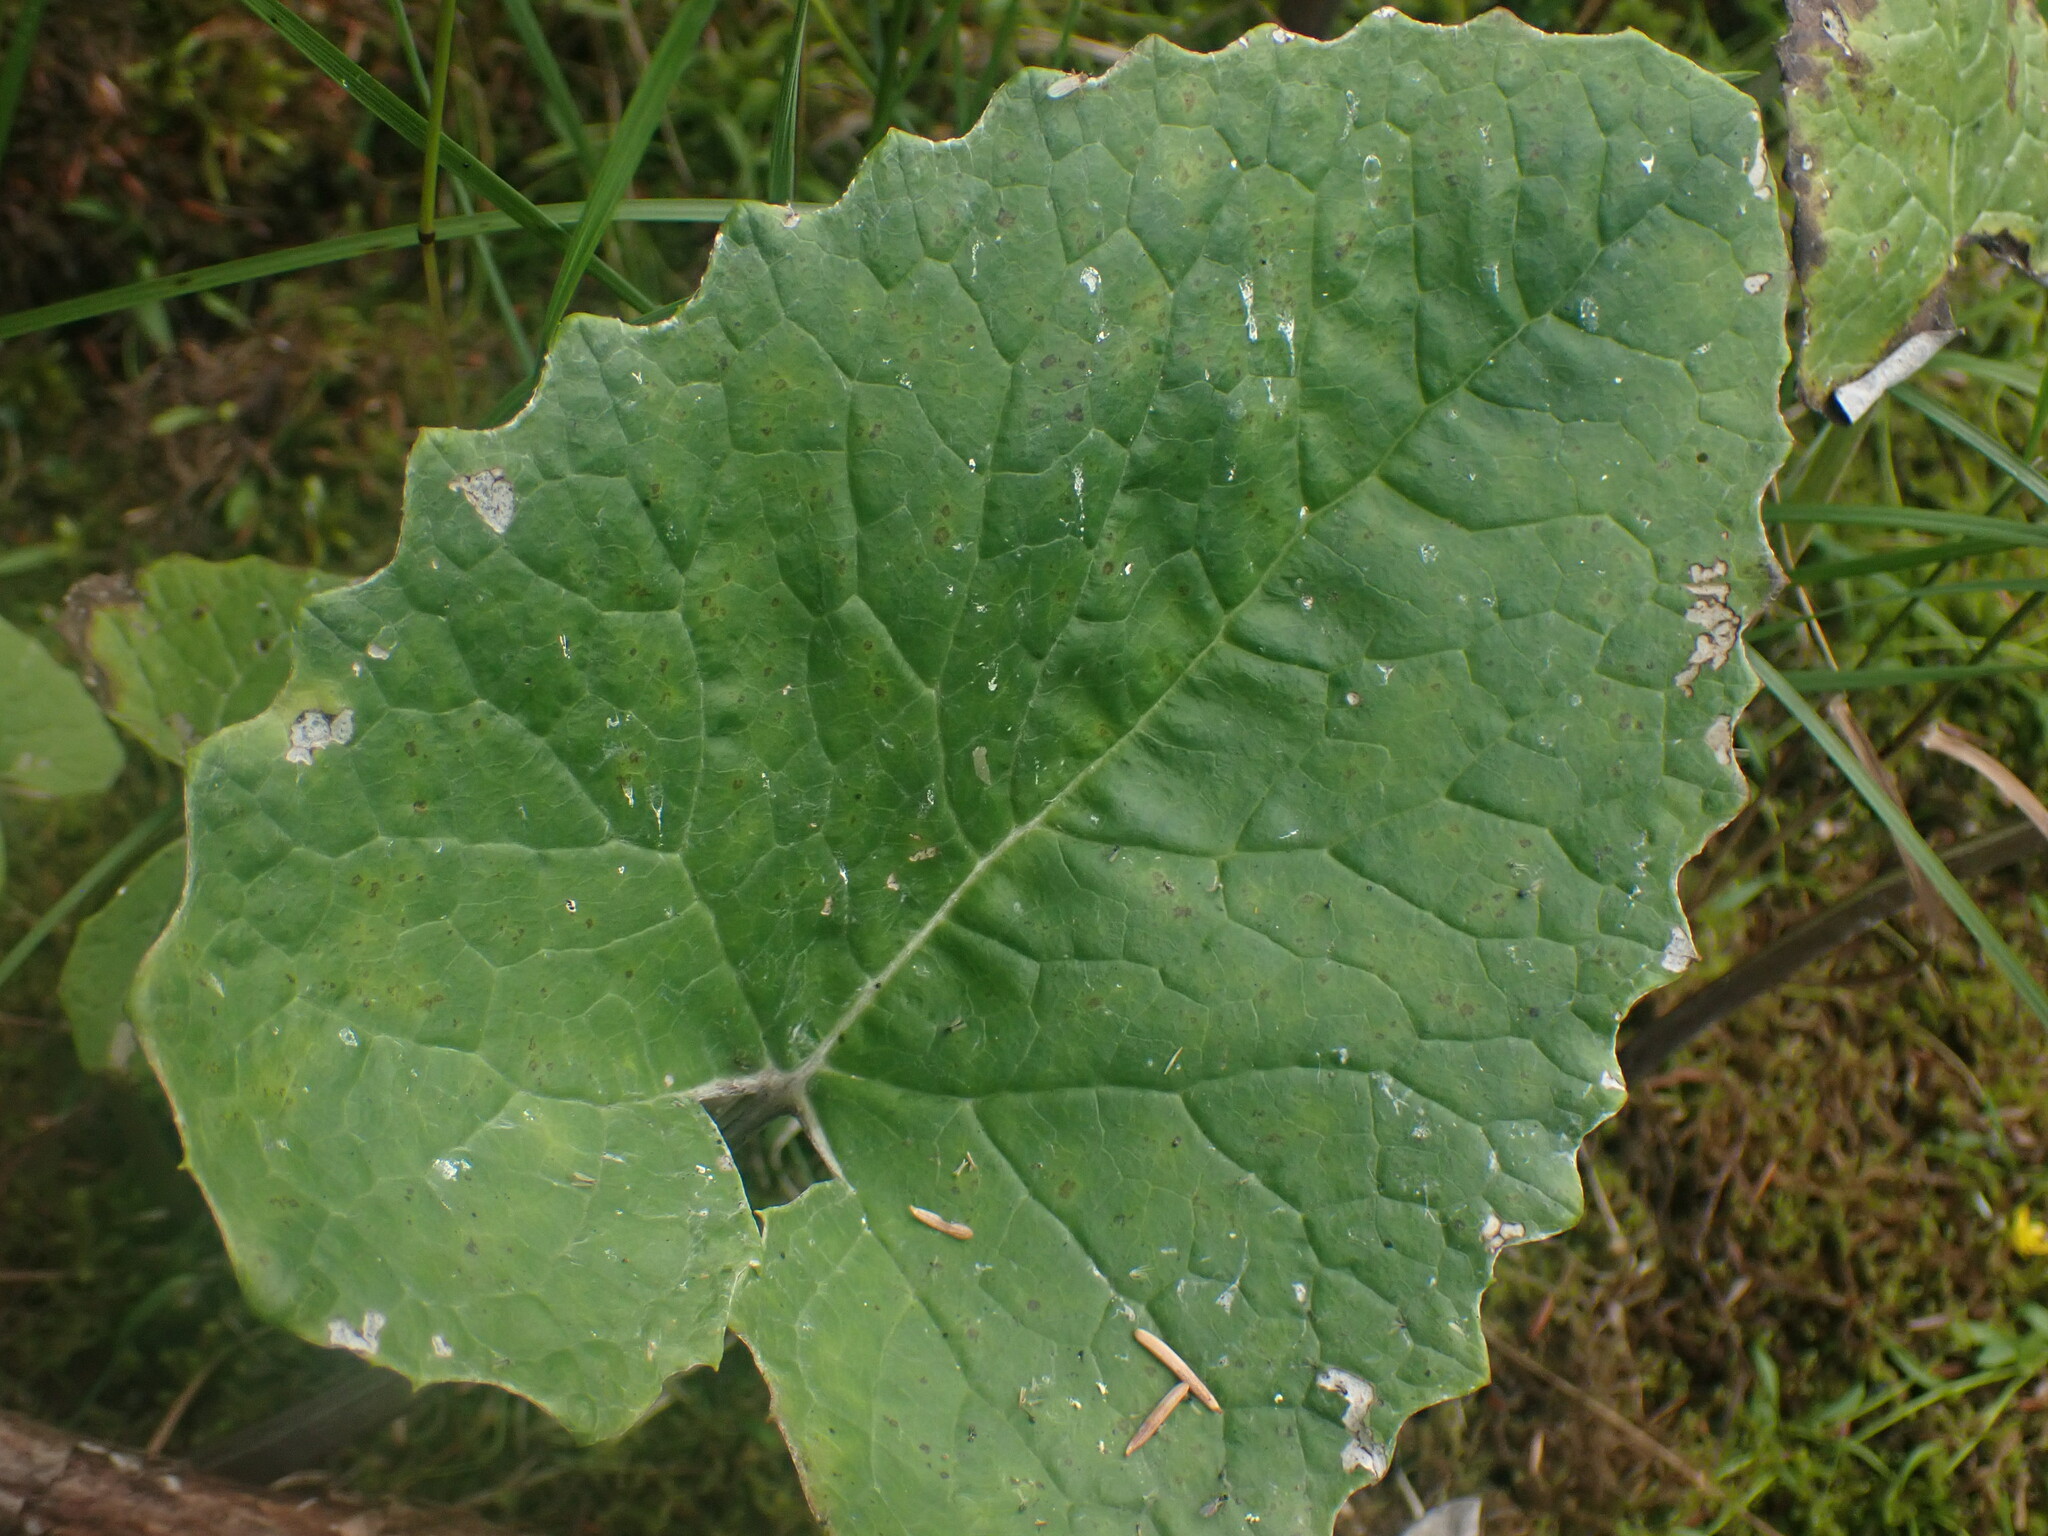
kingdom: Plantae
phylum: Tracheophyta
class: Magnoliopsida
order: Asterales
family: Asteraceae
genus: Petasites
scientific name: Petasites frigidus
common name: Arctic butterbur
